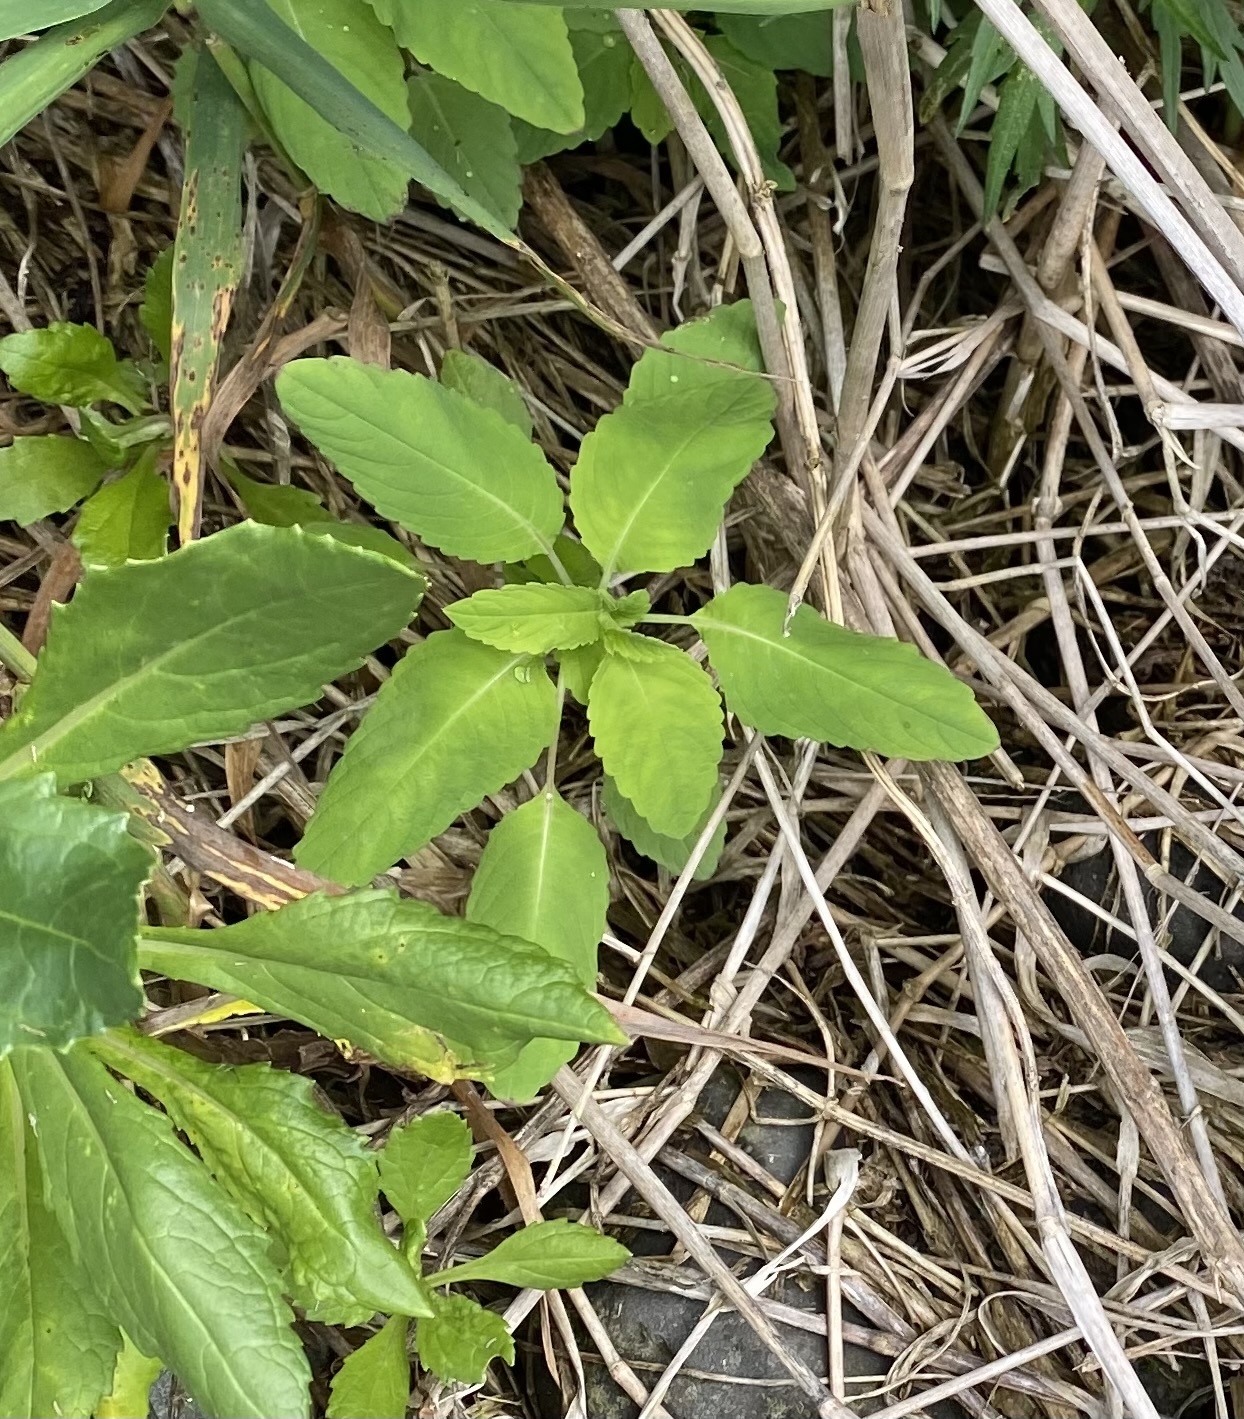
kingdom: Plantae
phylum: Tracheophyta
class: Magnoliopsida
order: Ericales
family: Balsaminaceae
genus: Impatiens
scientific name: Impatiens noli-tangere
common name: Touch-me-not balsam
